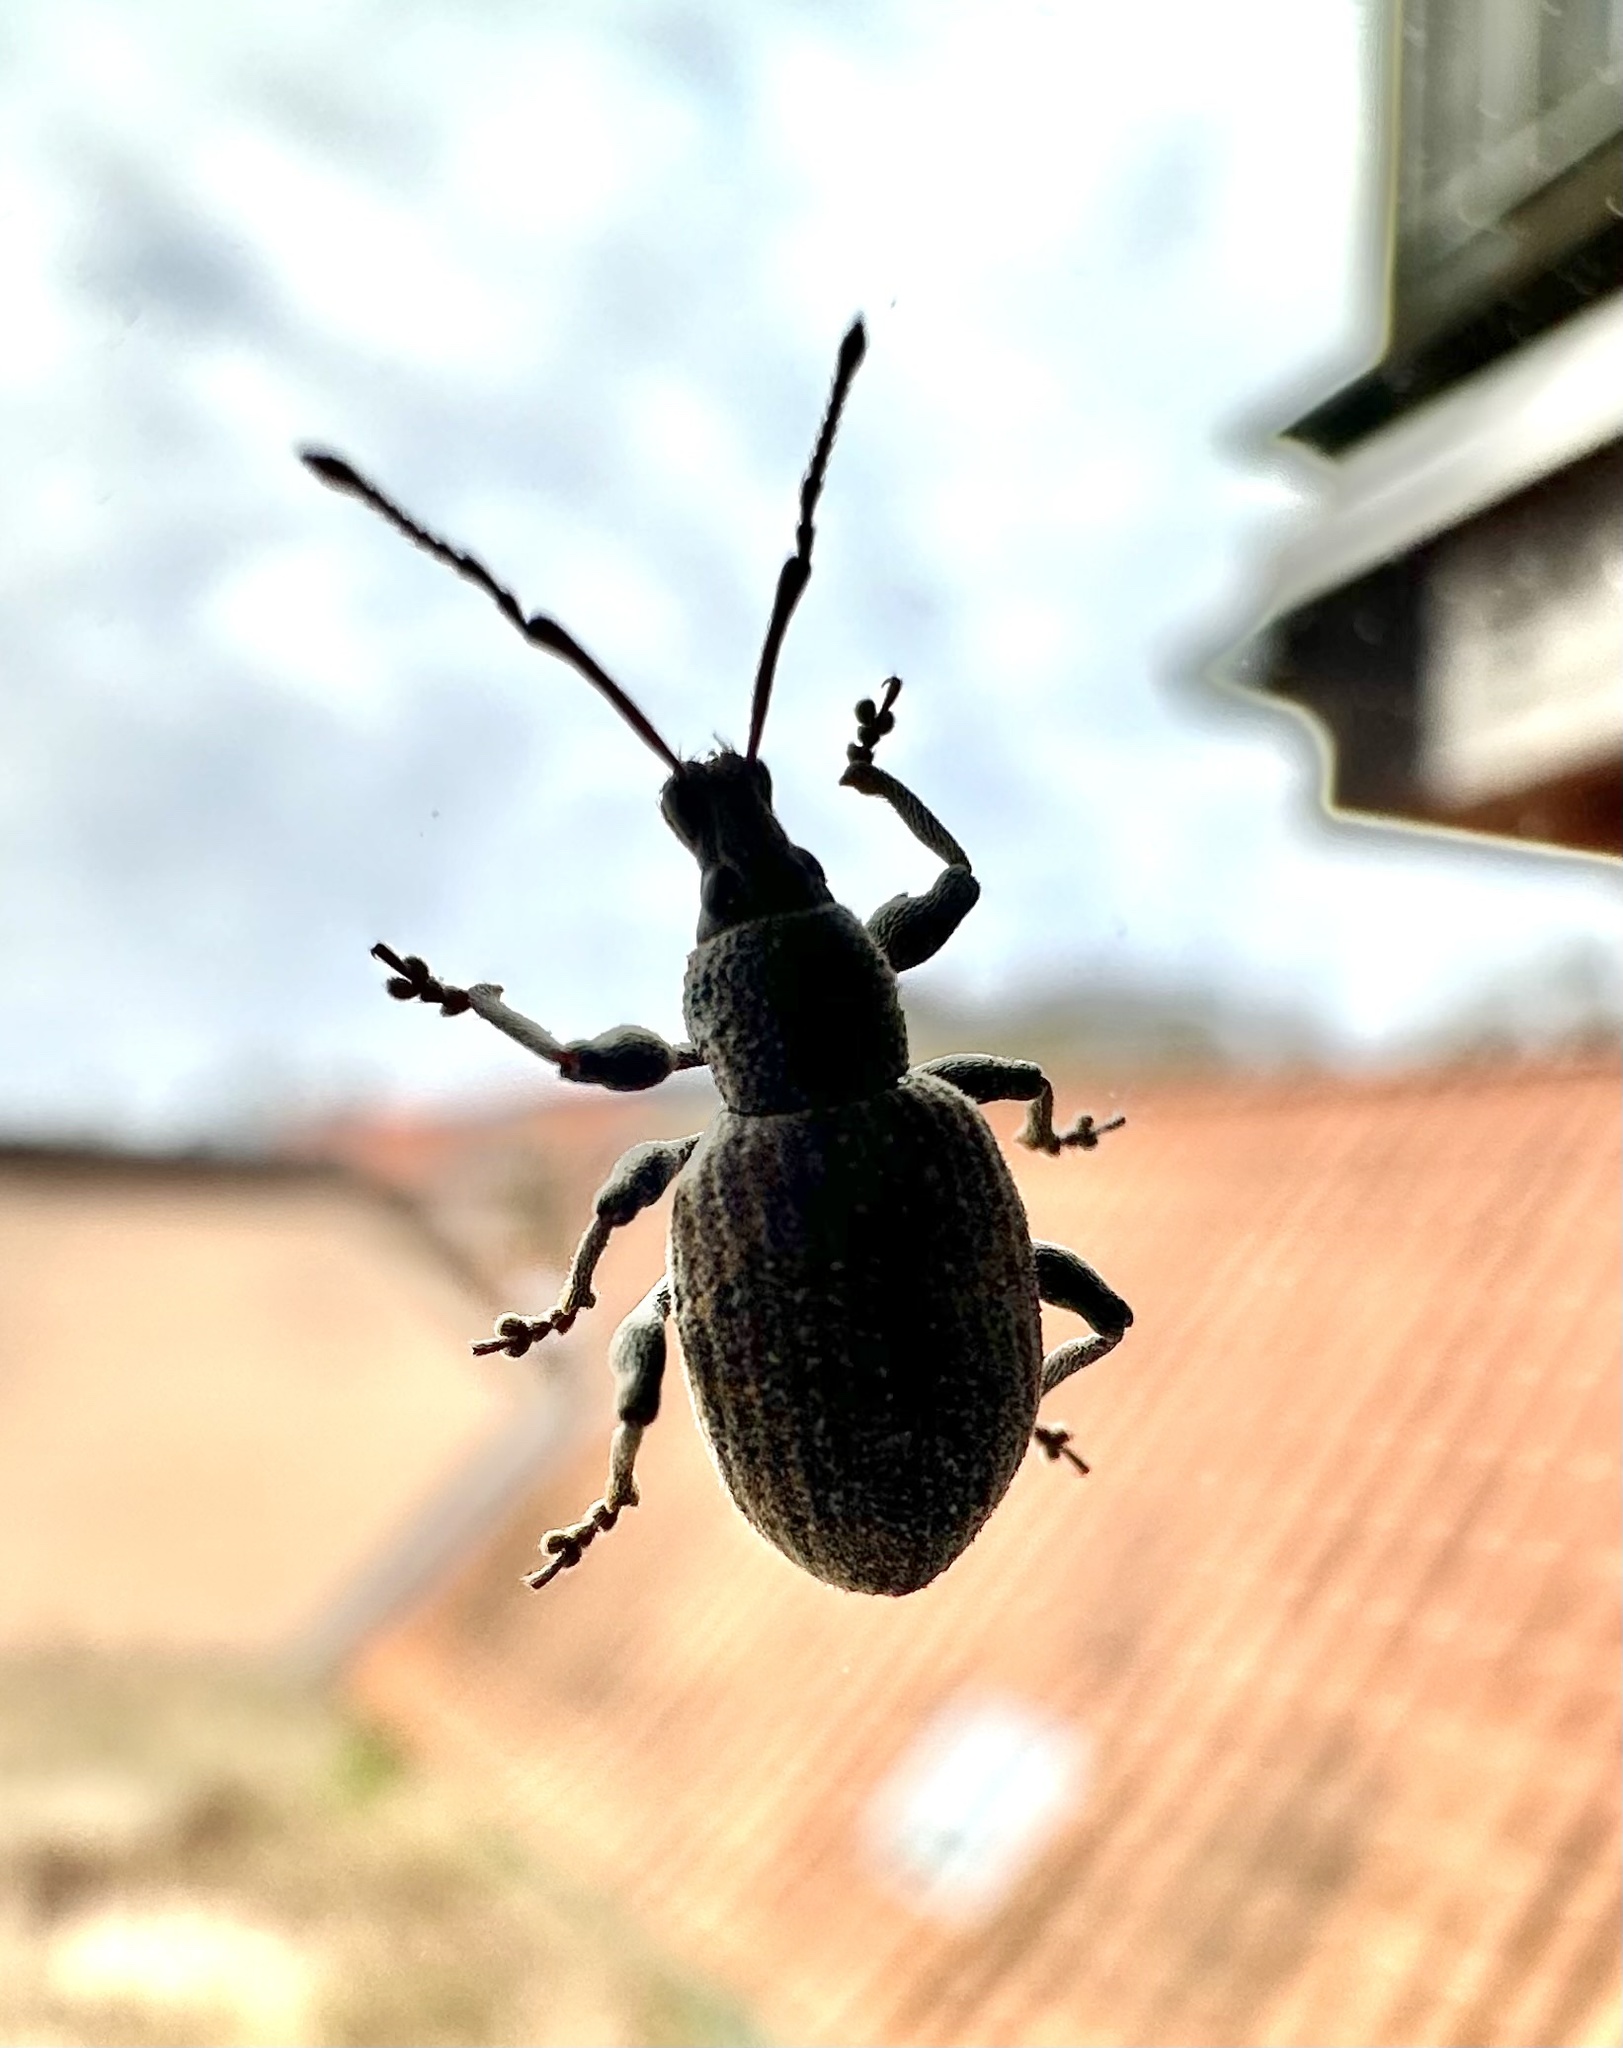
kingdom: Animalia
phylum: Arthropoda
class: Insecta
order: Coleoptera
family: Curculionidae
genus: Otiorhynchus
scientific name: Otiorhynchus sulcatus
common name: Black vine weevil
